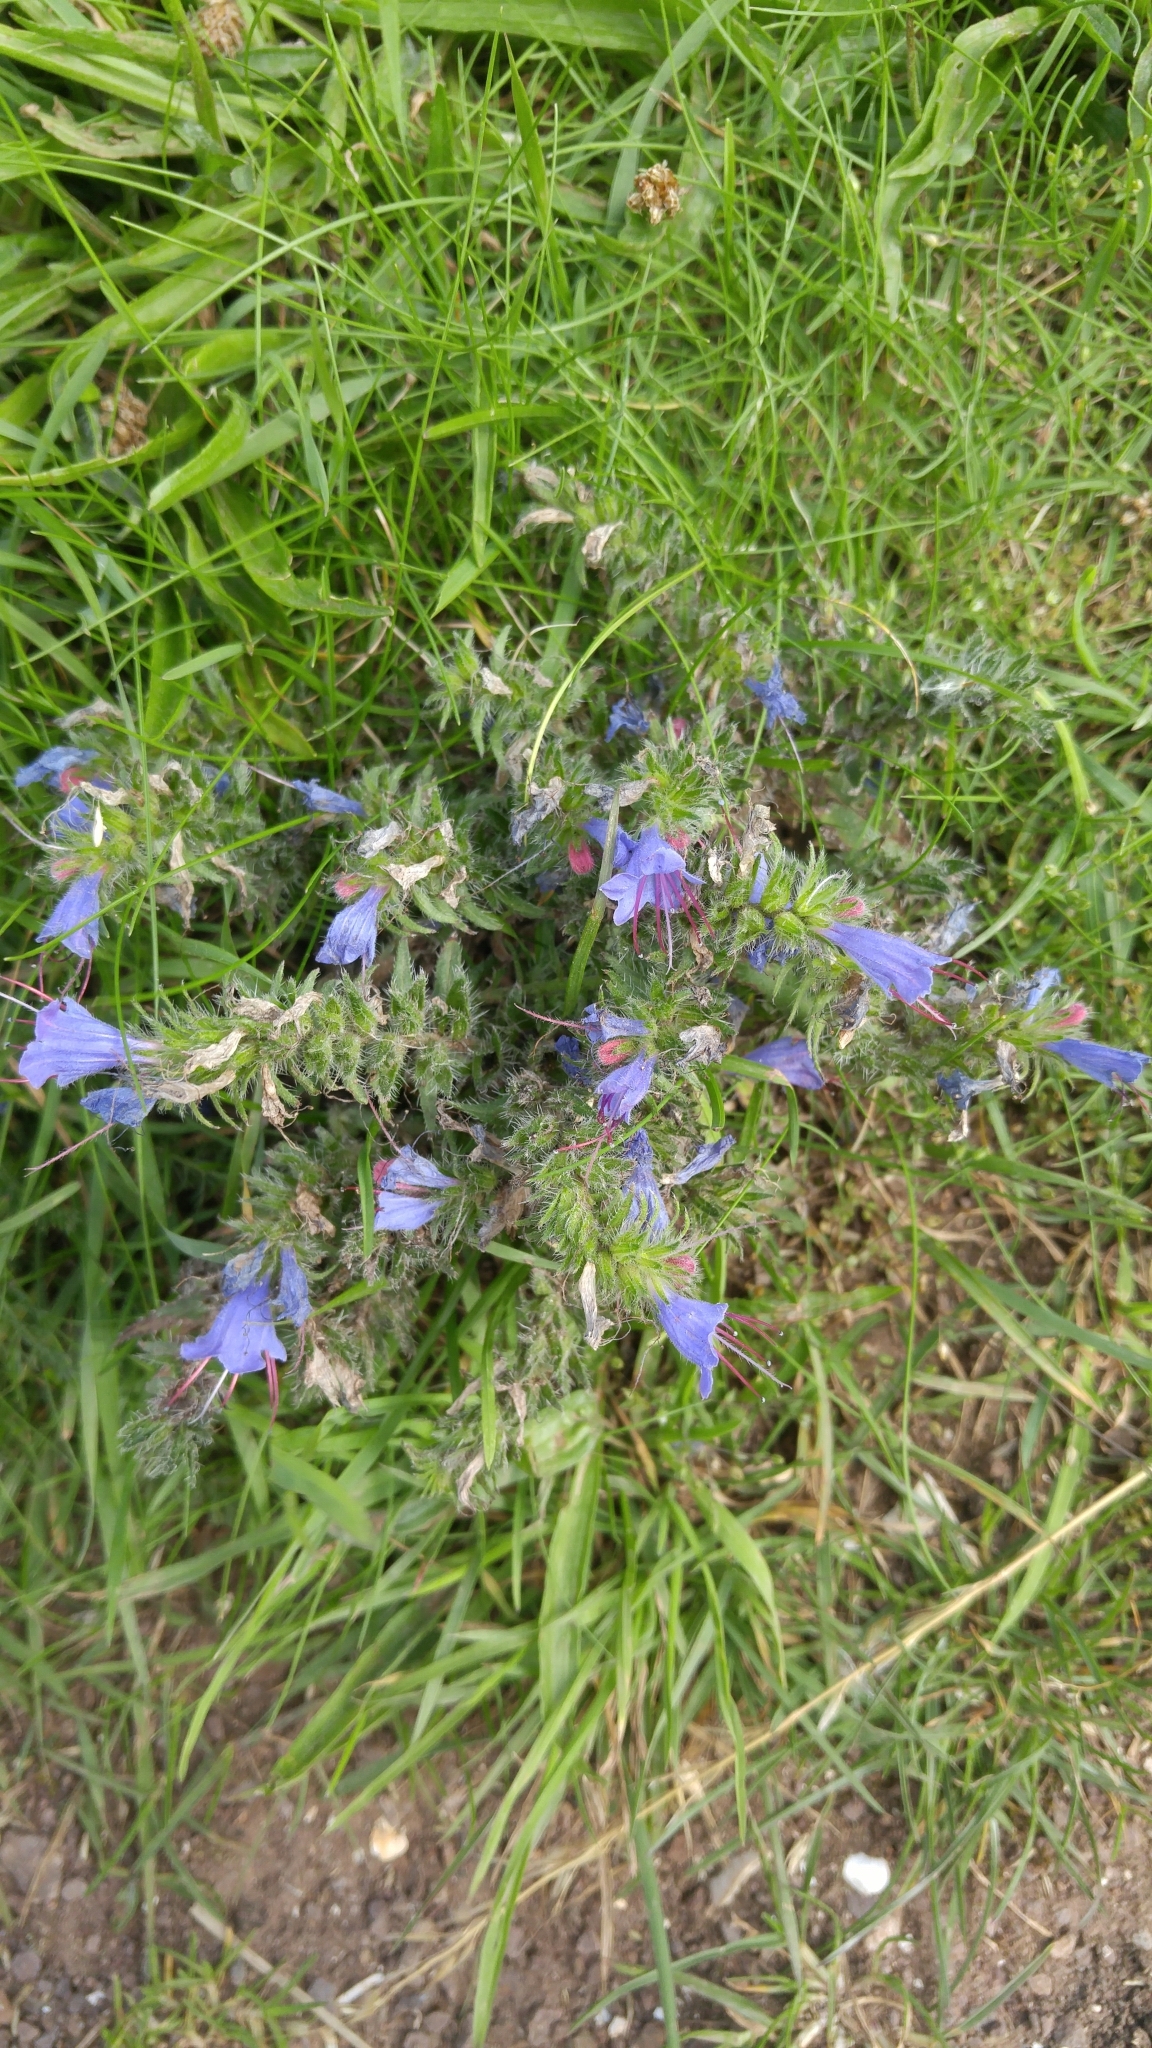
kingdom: Plantae
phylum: Tracheophyta
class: Magnoliopsida
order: Boraginales
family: Boraginaceae
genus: Echium
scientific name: Echium vulgare
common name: Common viper's bugloss
